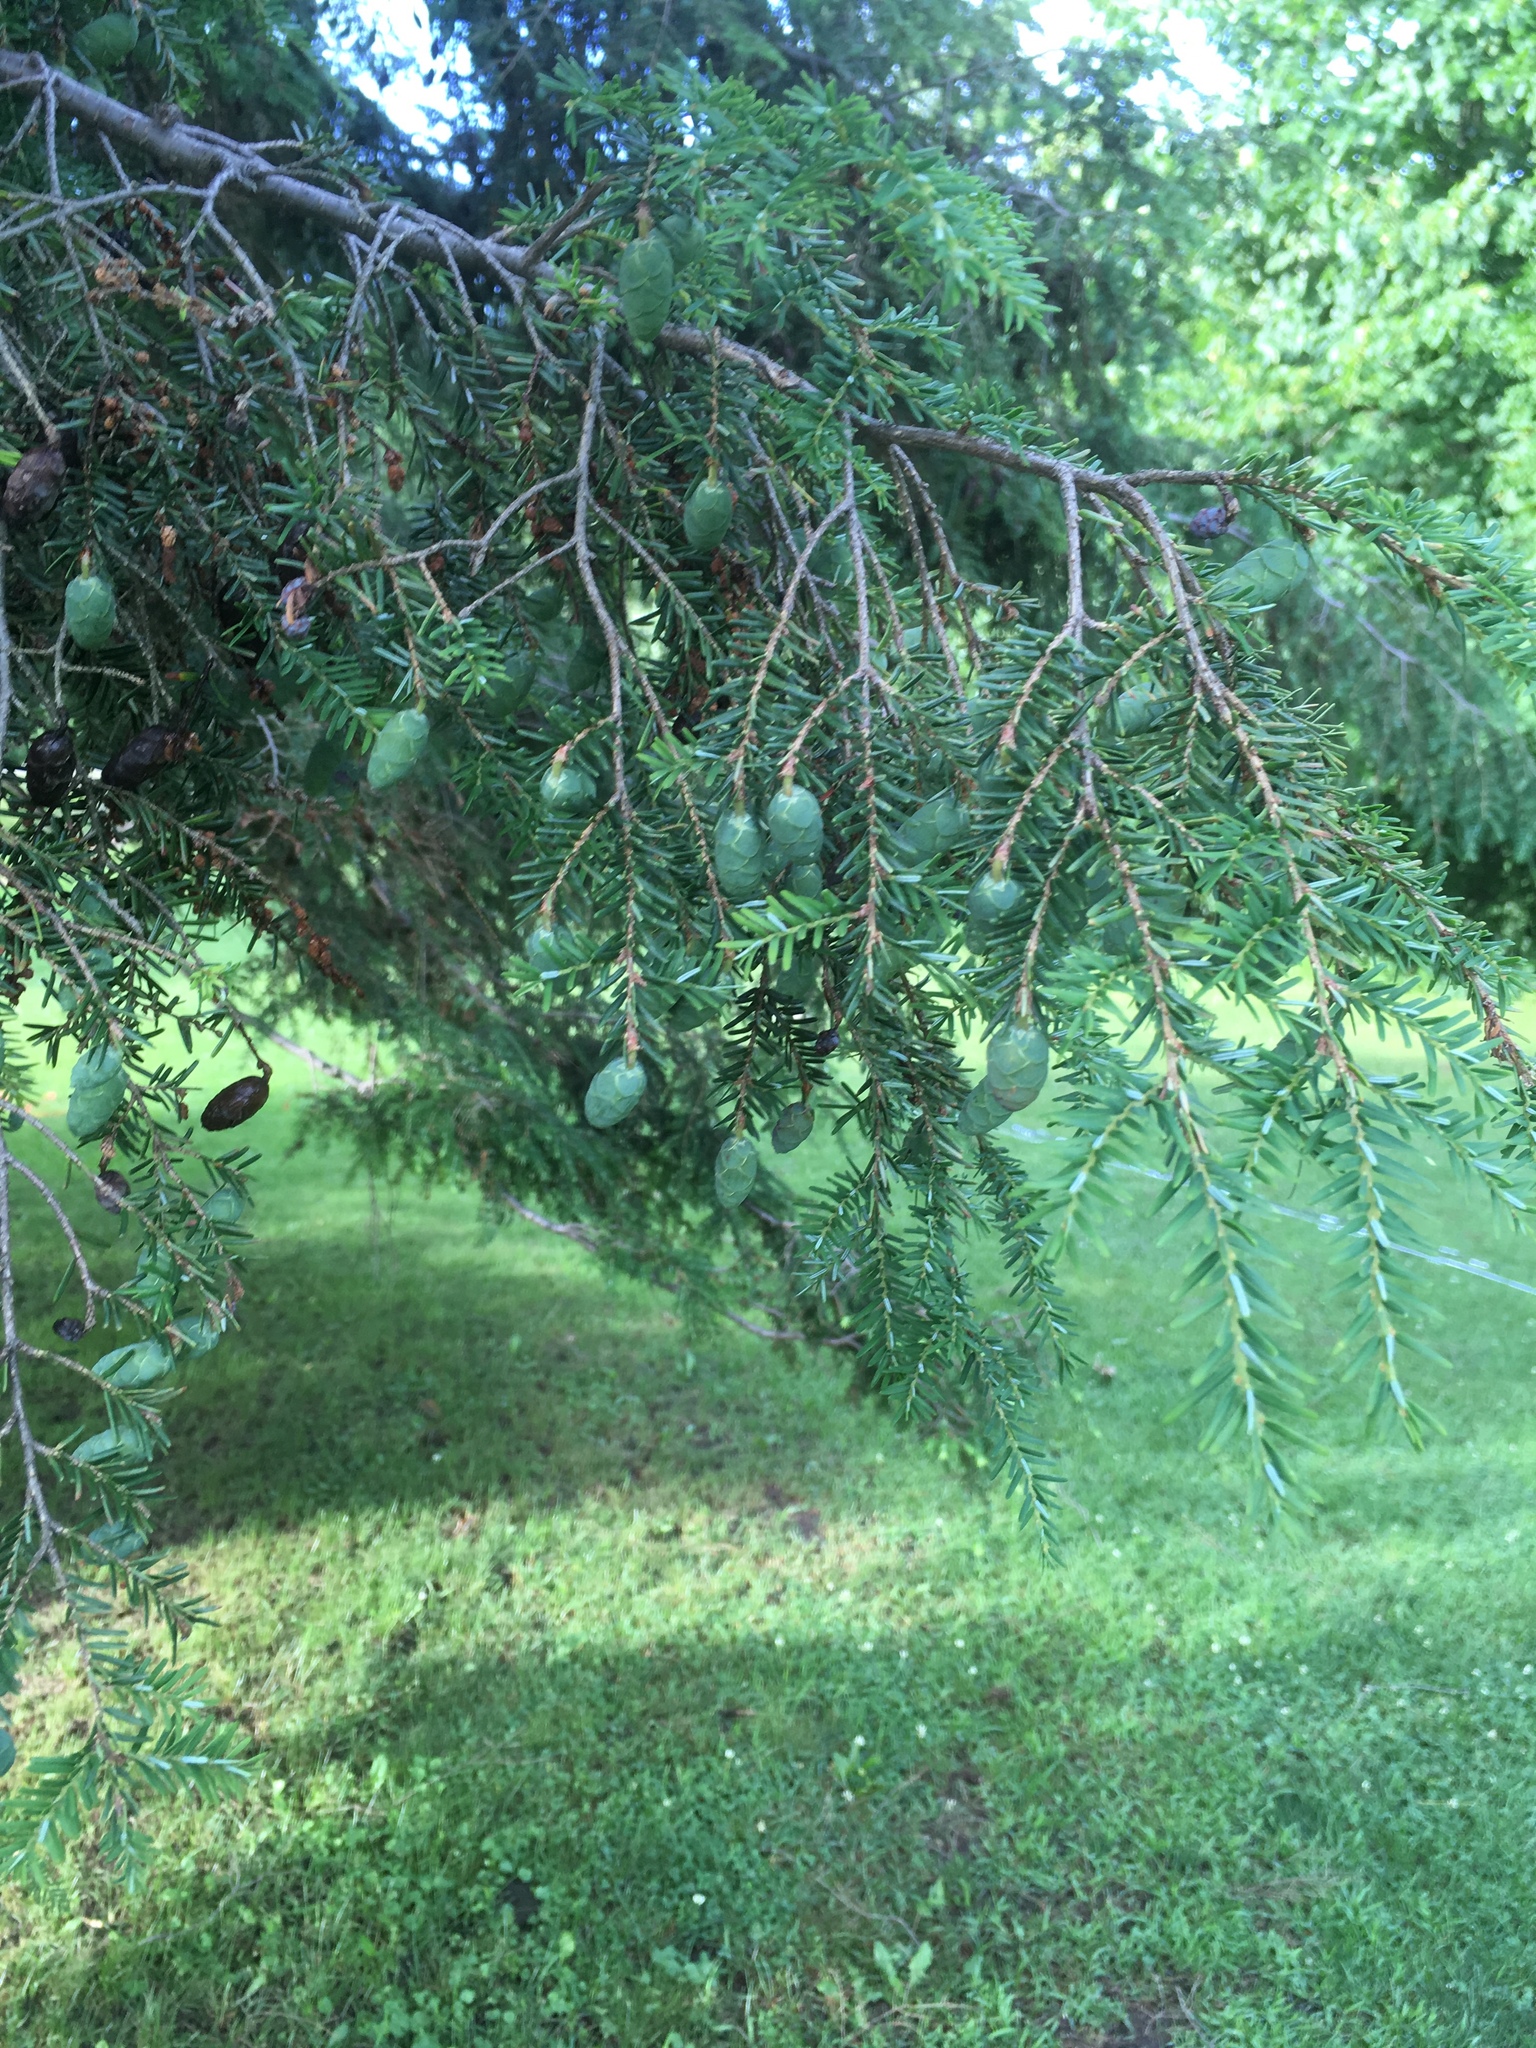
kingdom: Plantae
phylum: Tracheophyta
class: Pinopsida
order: Pinales
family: Pinaceae
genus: Tsuga
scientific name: Tsuga canadensis
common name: Eastern hemlock
